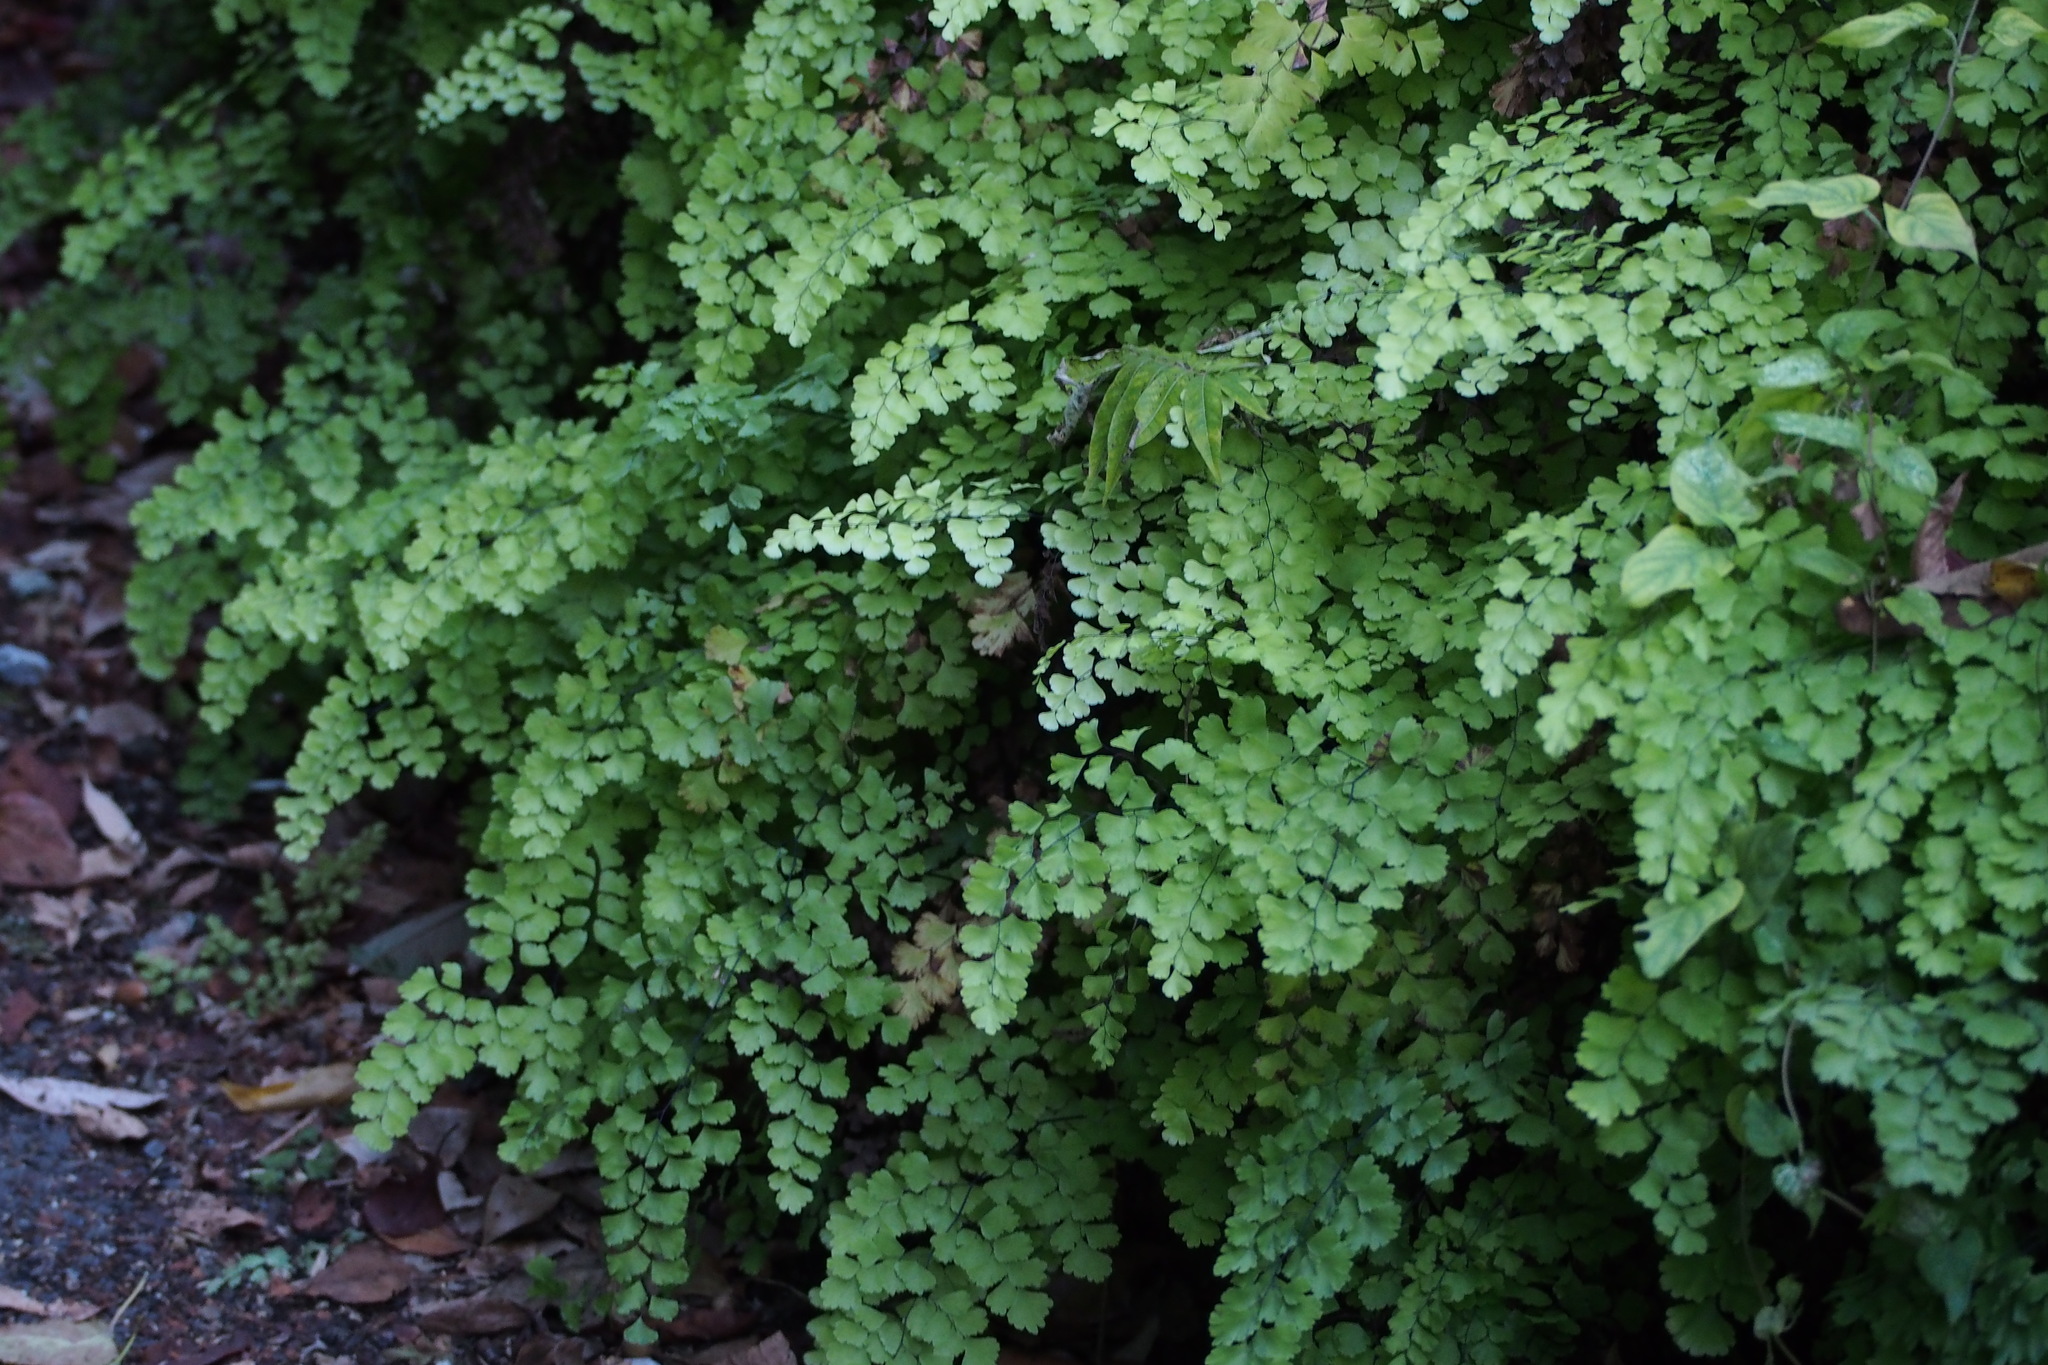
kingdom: Plantae
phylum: Tracheophyta
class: Polypodiopsida
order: Polypodiales
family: Pteridaceae
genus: Adiantum
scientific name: Adiantum capillus-veneris
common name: Maidenhair fern
